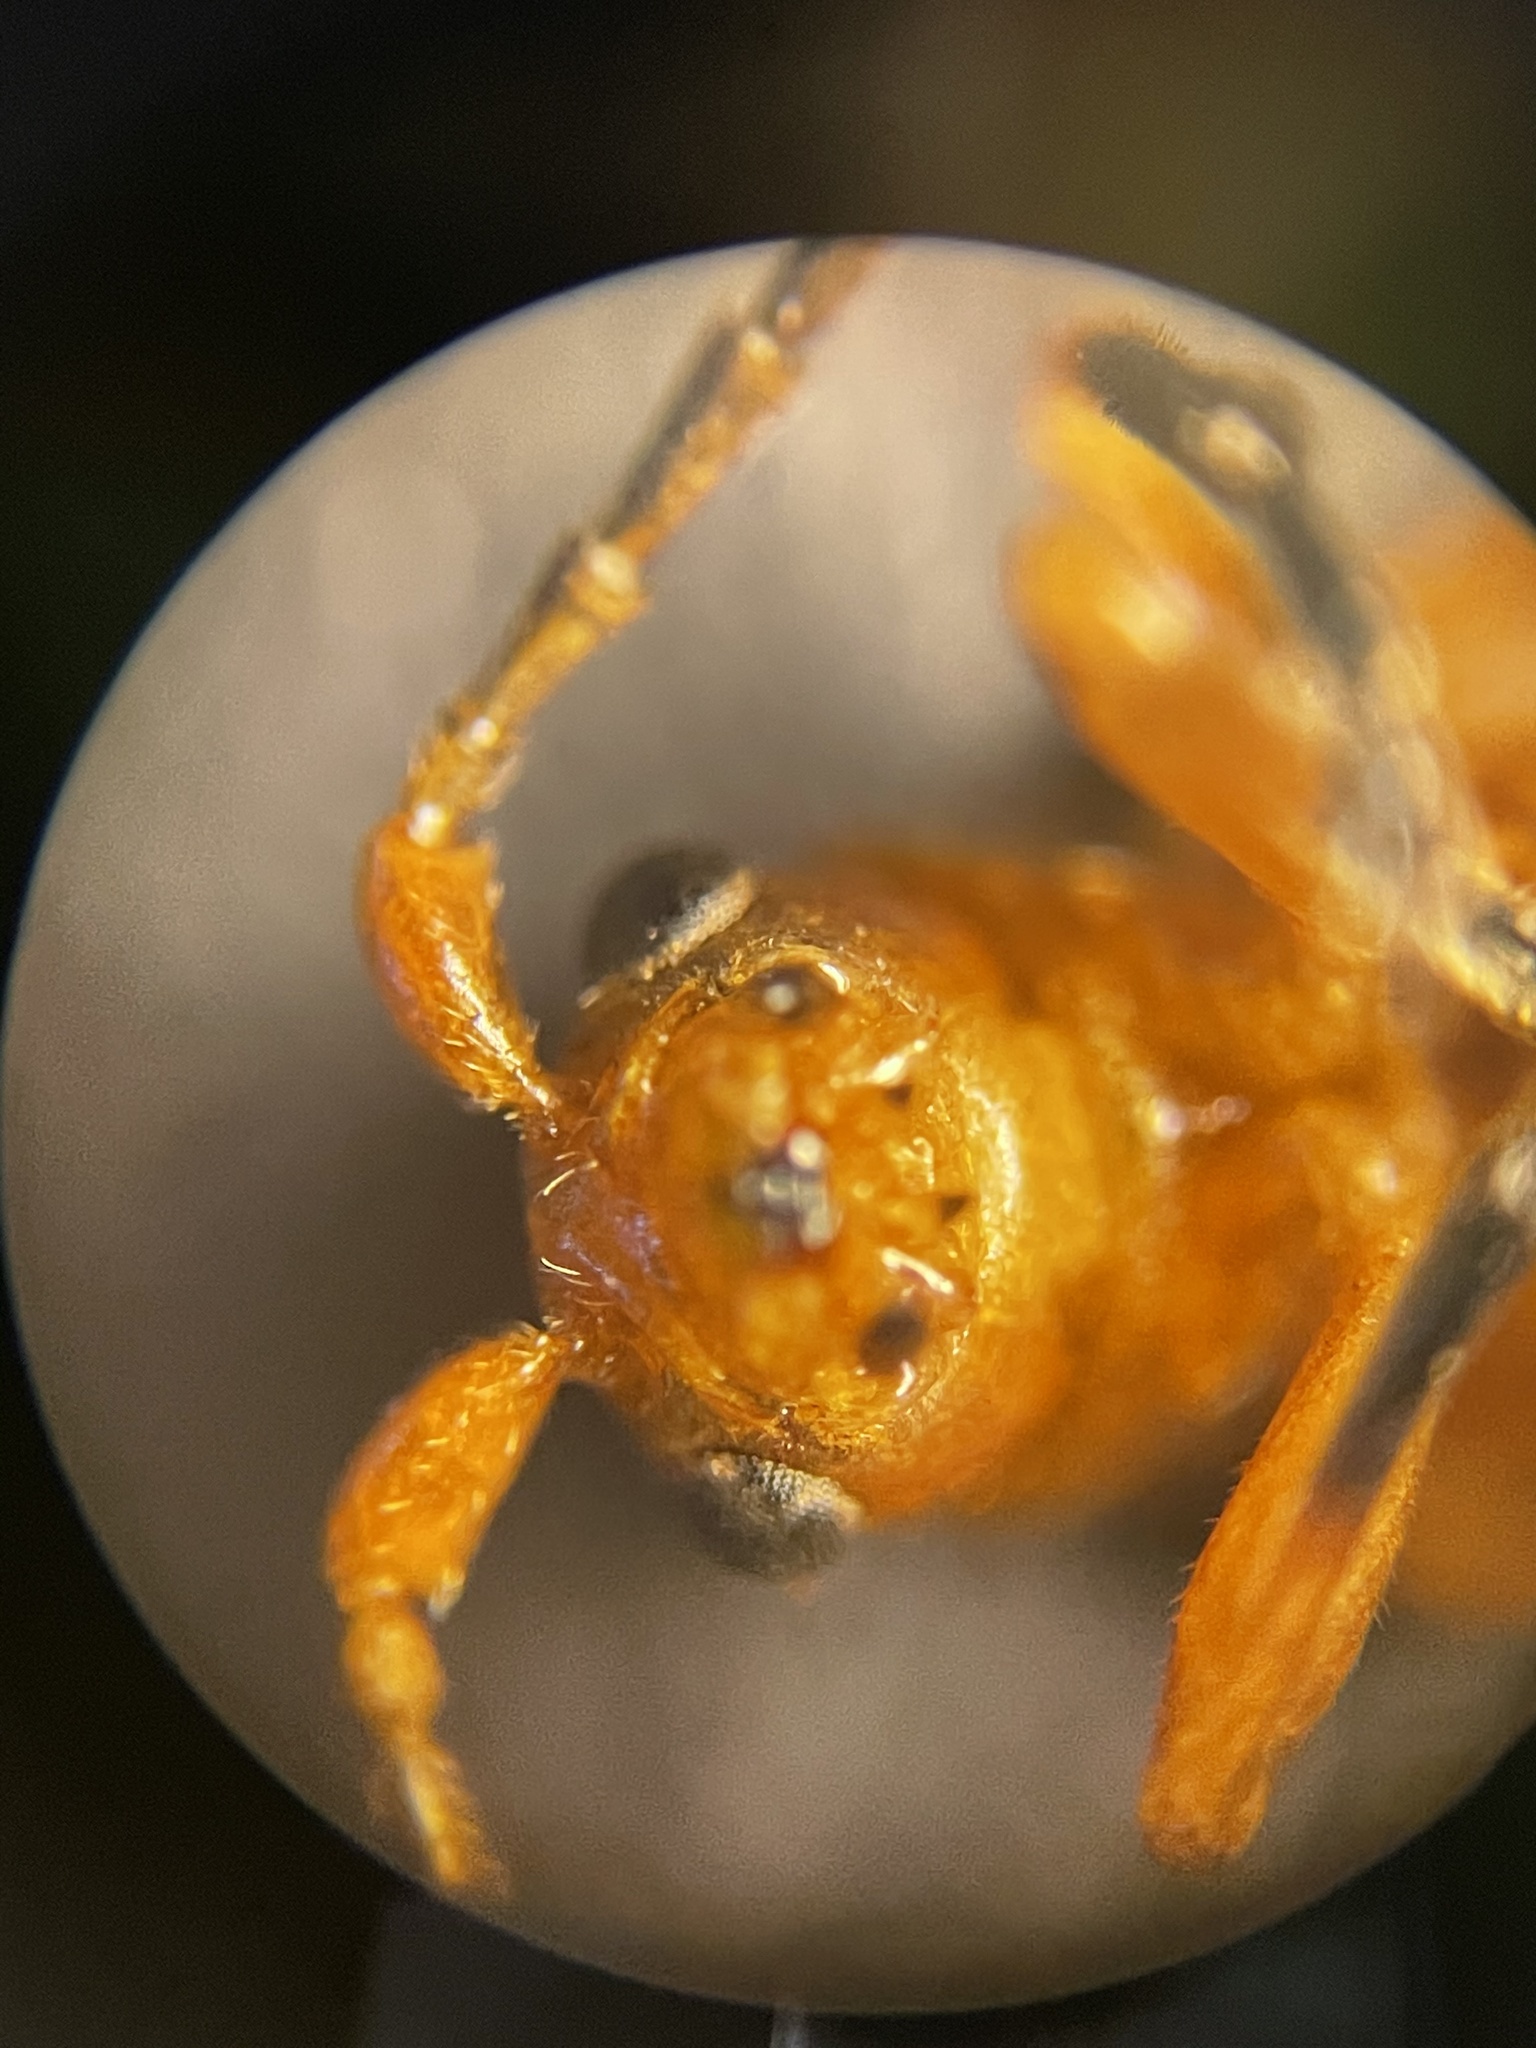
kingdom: Animalia
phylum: Arthropoda
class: Insecta
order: Coleoptera
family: Chrysomelidae
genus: Phyllobrotica
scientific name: Phyllobrotica sororia
